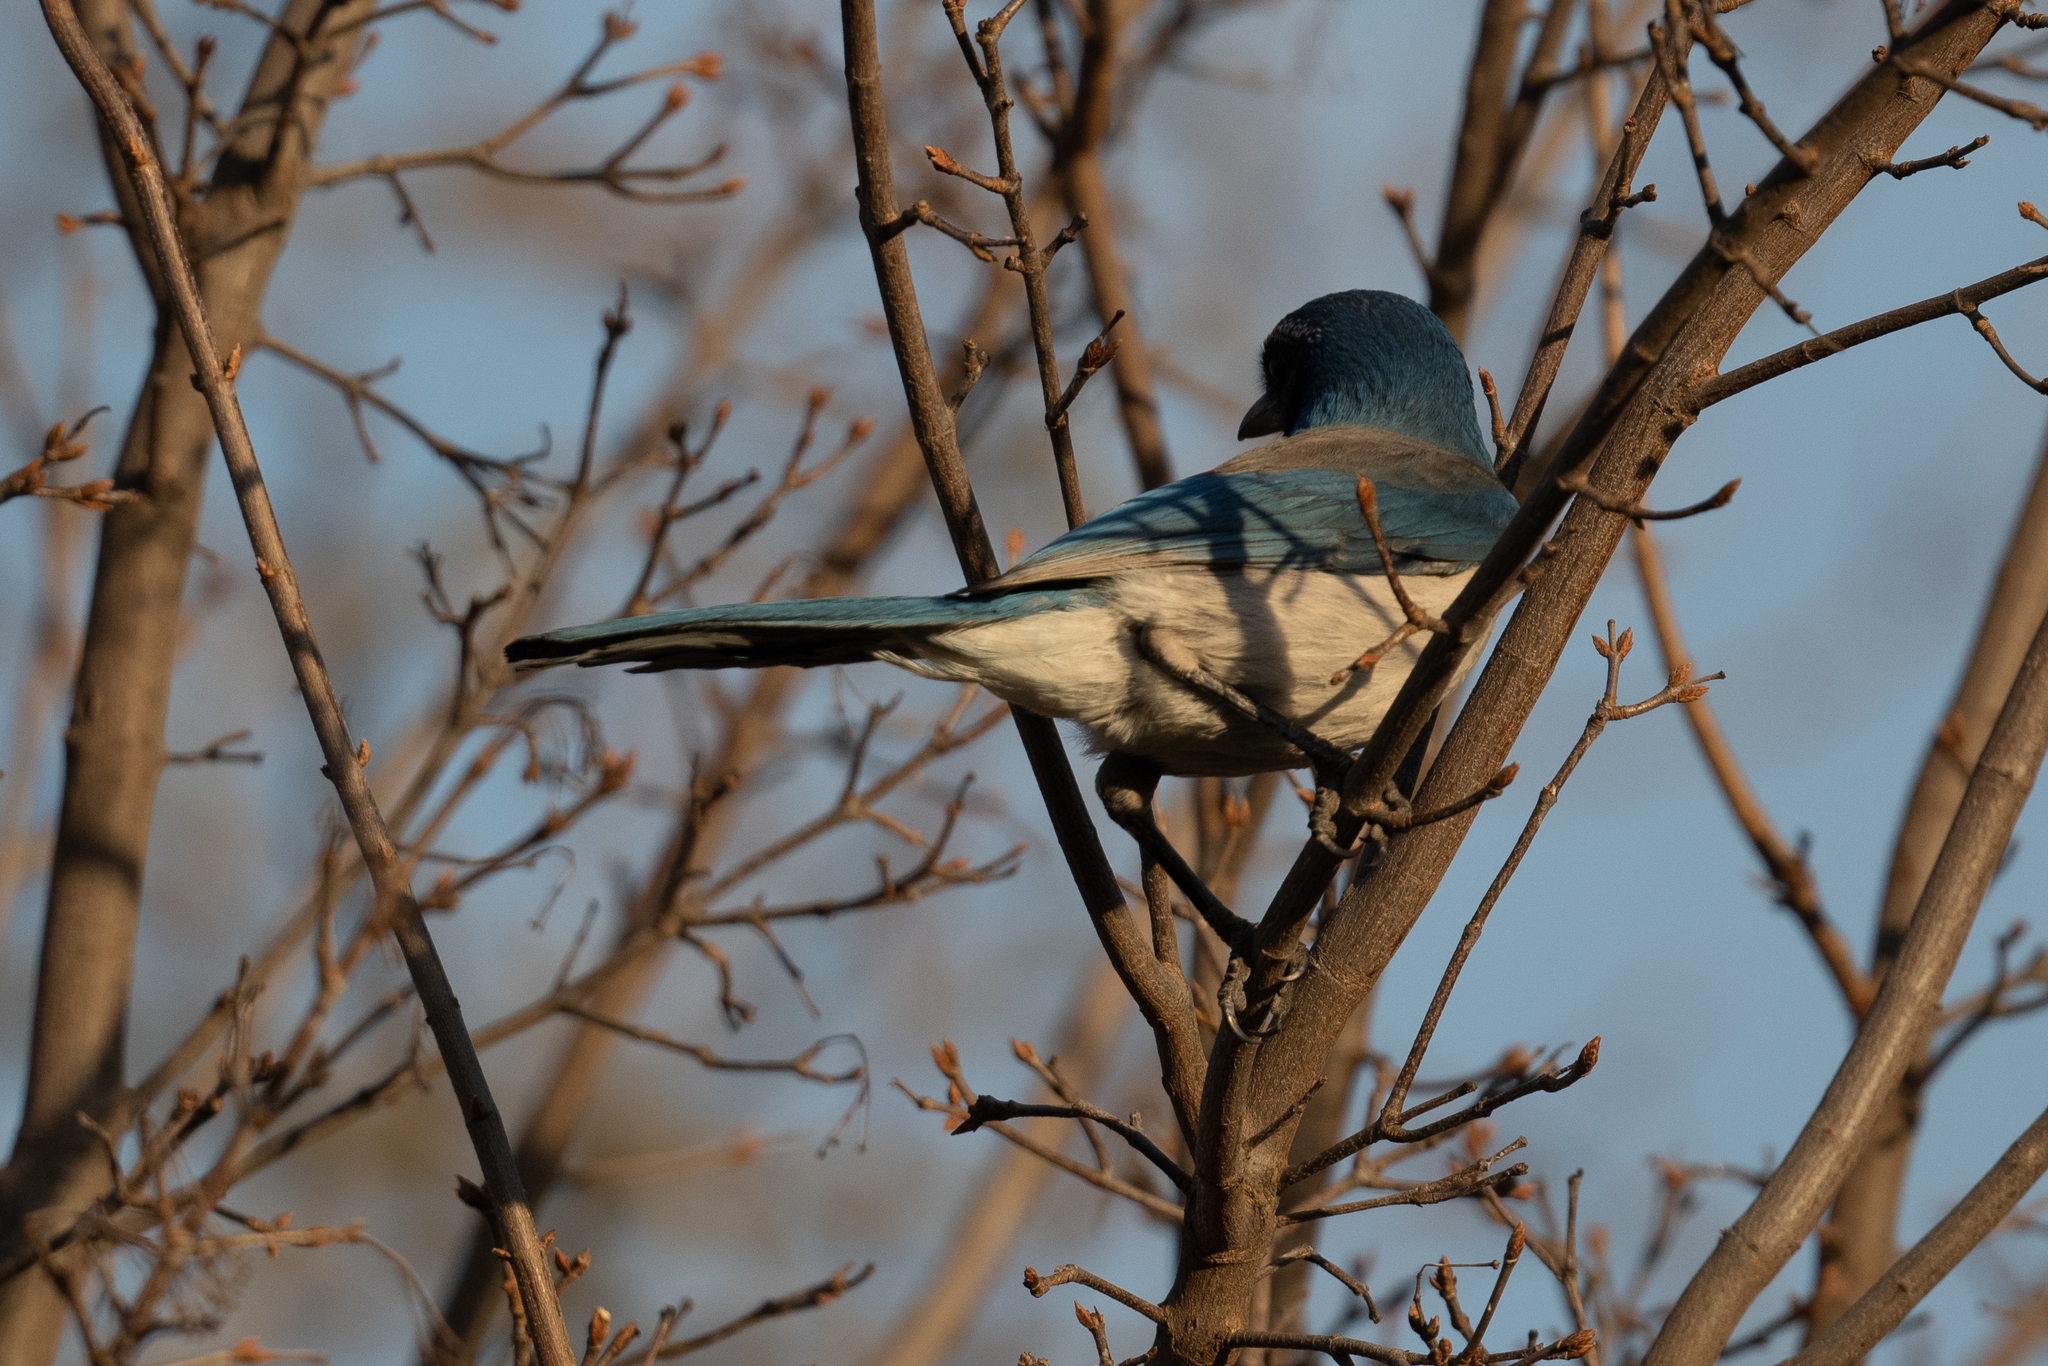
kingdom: Animalia
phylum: Chordata
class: Aves
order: Passeriformes
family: Corvidae
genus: Aphelocoma
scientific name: Aphelocoma californica
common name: California scrub-jay
